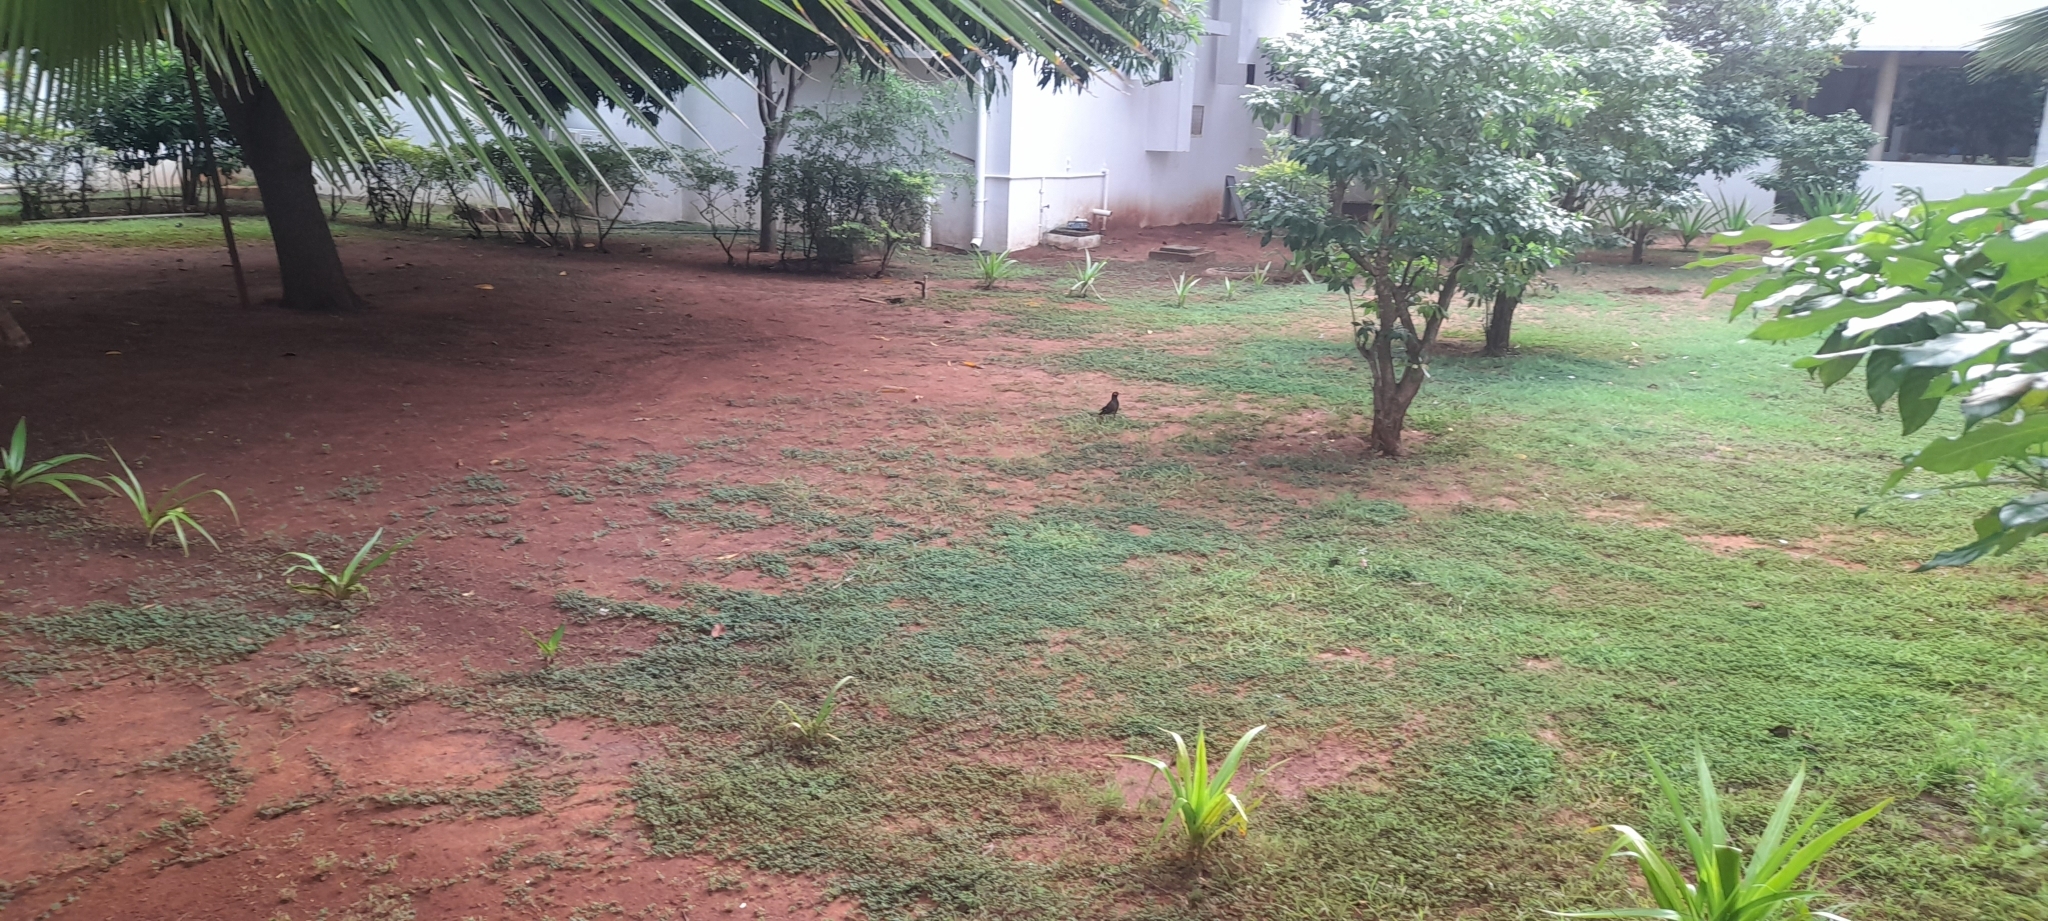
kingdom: Animalia
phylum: Chordata
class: Aves
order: Passeriformes
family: Sturnidae
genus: Acridotheres
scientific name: Acridotheres tristis
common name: Common myna
